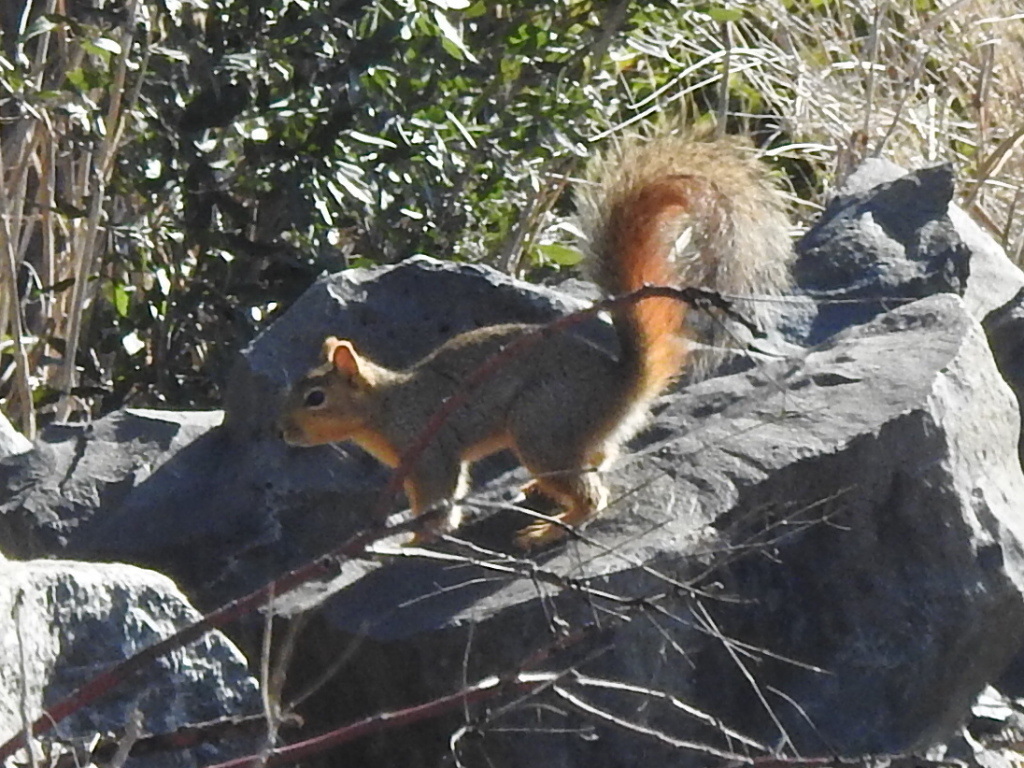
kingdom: Animalia
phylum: Chordata
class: Mammalia
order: Rodentia
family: Sciuridae
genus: Sciurus
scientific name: Sciurus niger
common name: Fox squirrel
